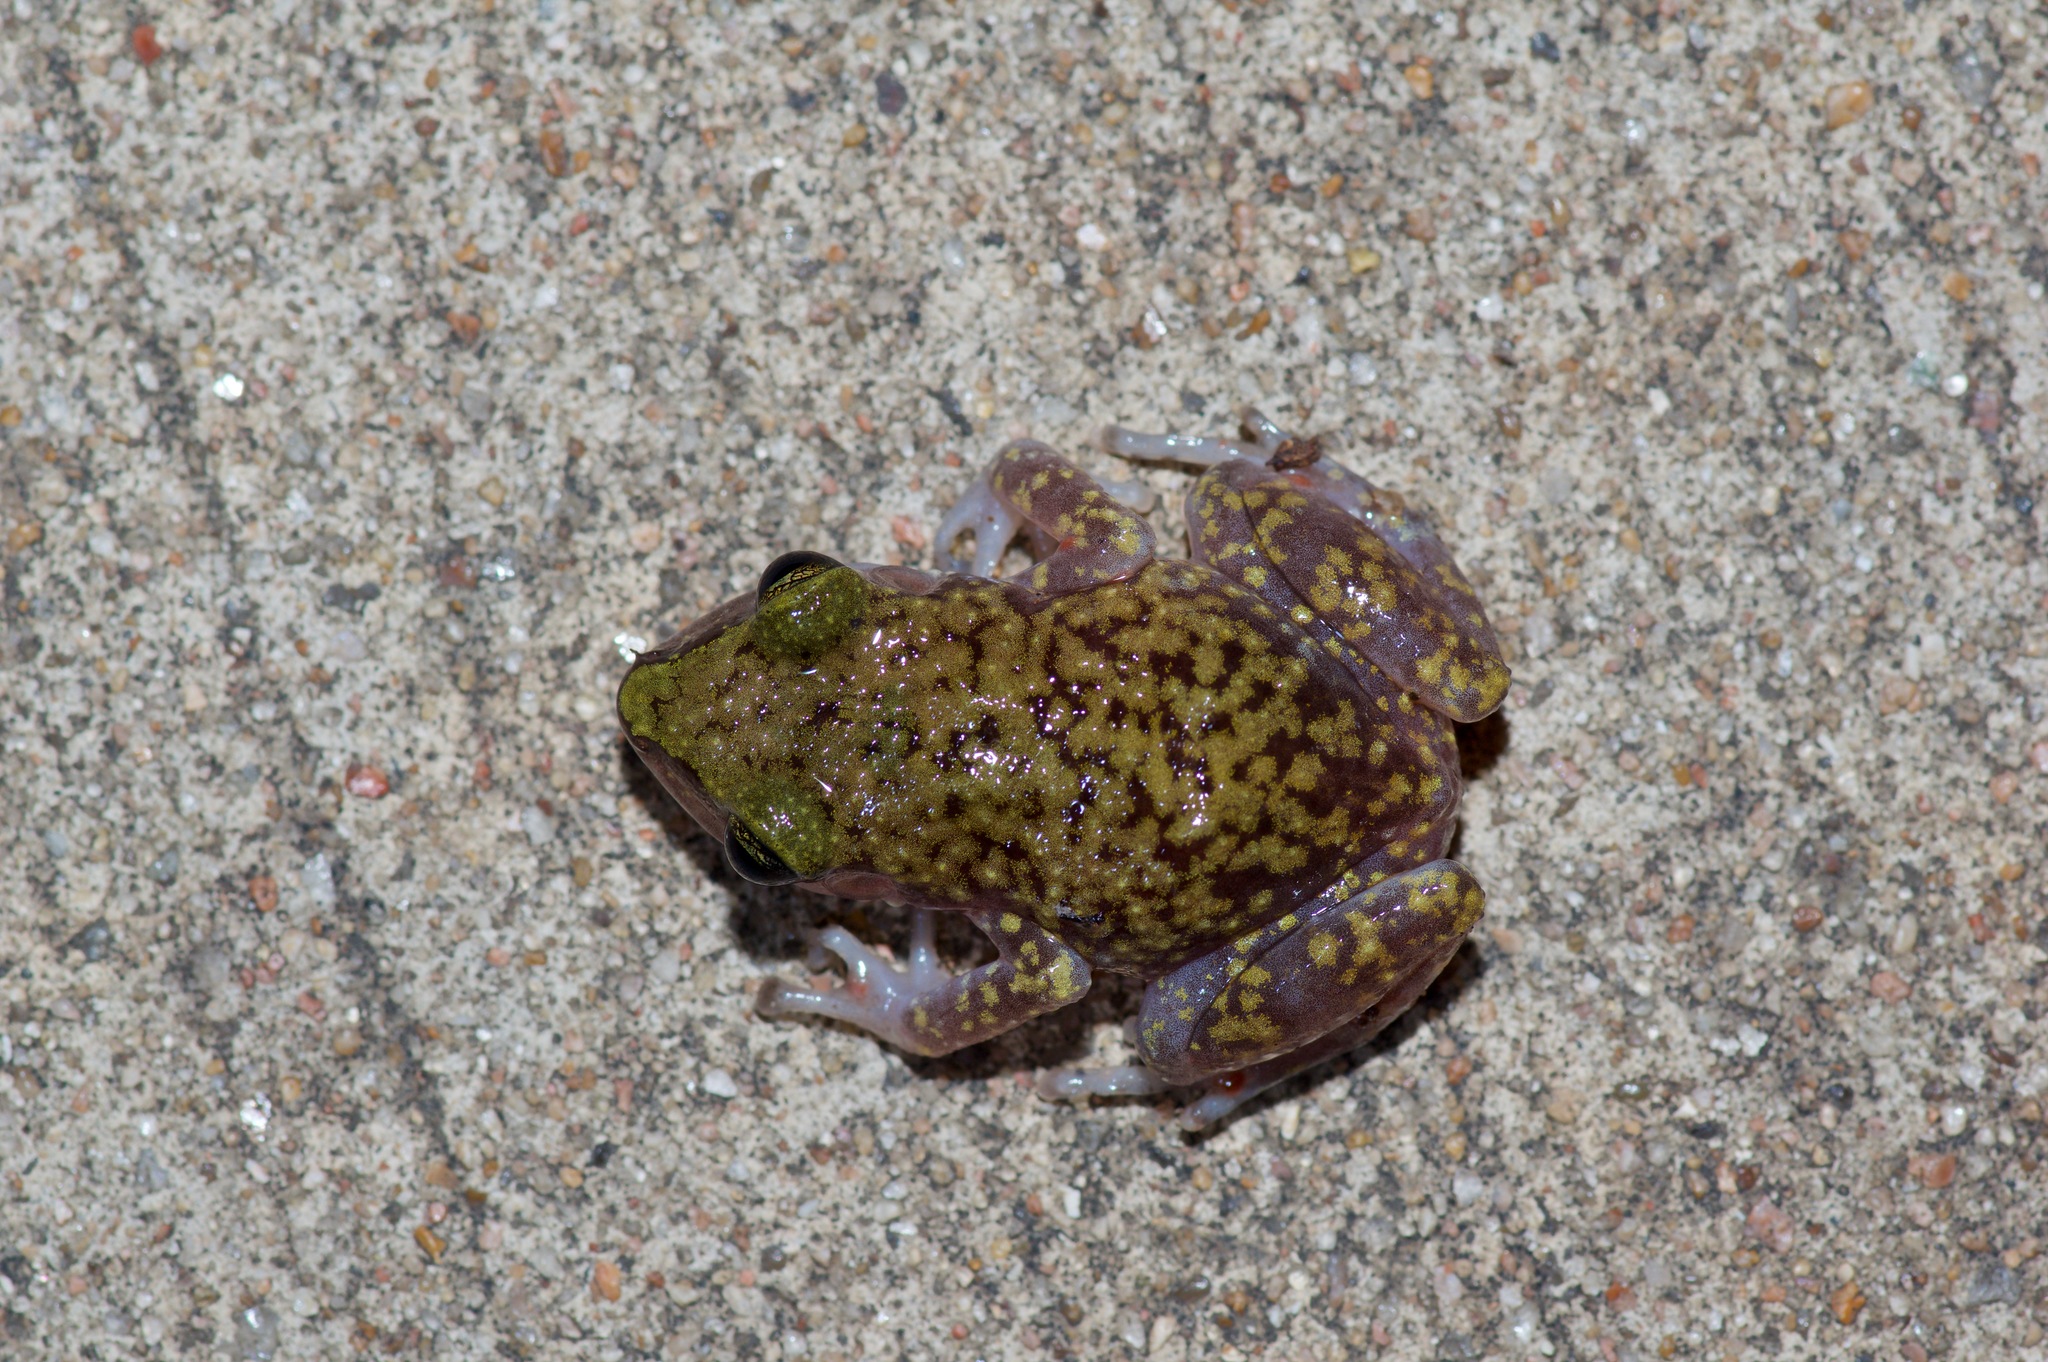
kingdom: Animalia
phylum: Chordata
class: Amphibia
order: Anura
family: Eleutherodactylidae
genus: Eleutherodactylus
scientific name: Eleutherodactylus marnockii
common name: Cliff chirping frog
